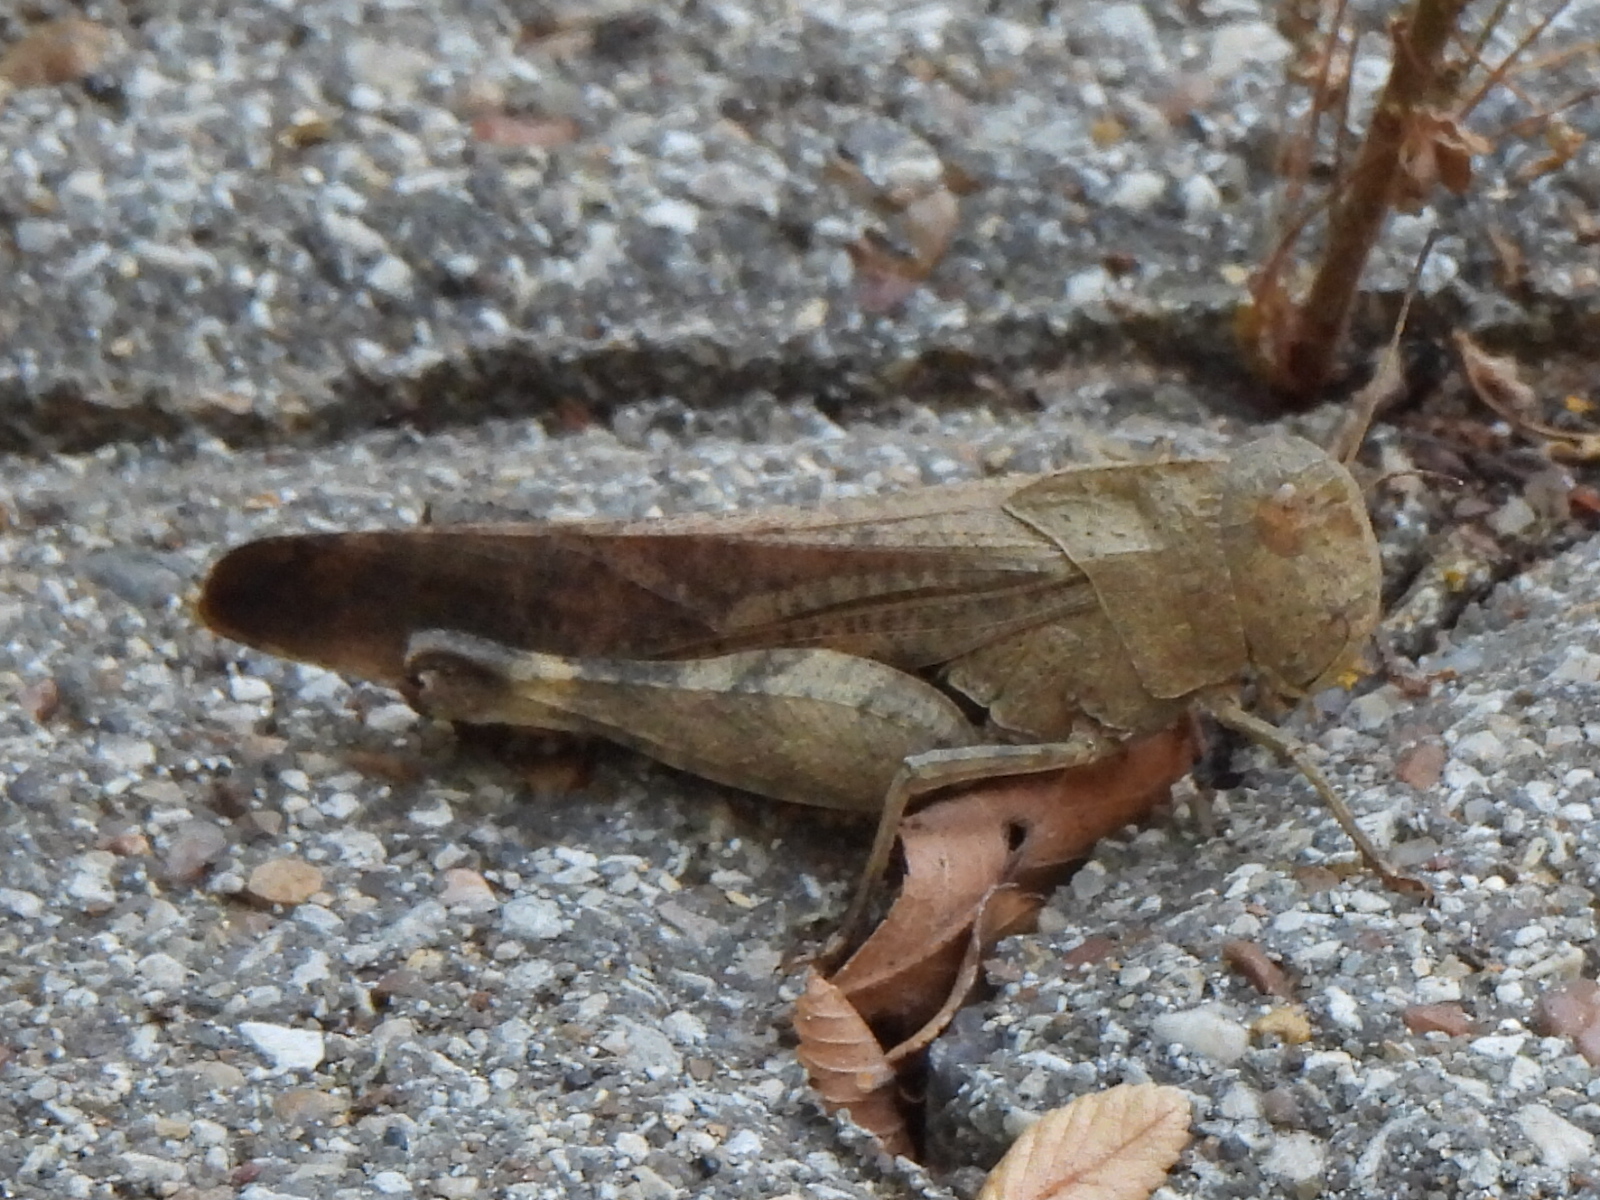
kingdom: Animalia
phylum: Arthropoda
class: Insecta
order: Orthoptera
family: Acrididae
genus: Arphia
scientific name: Arphia simplex
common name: Plains yellow-winged grasshopper
